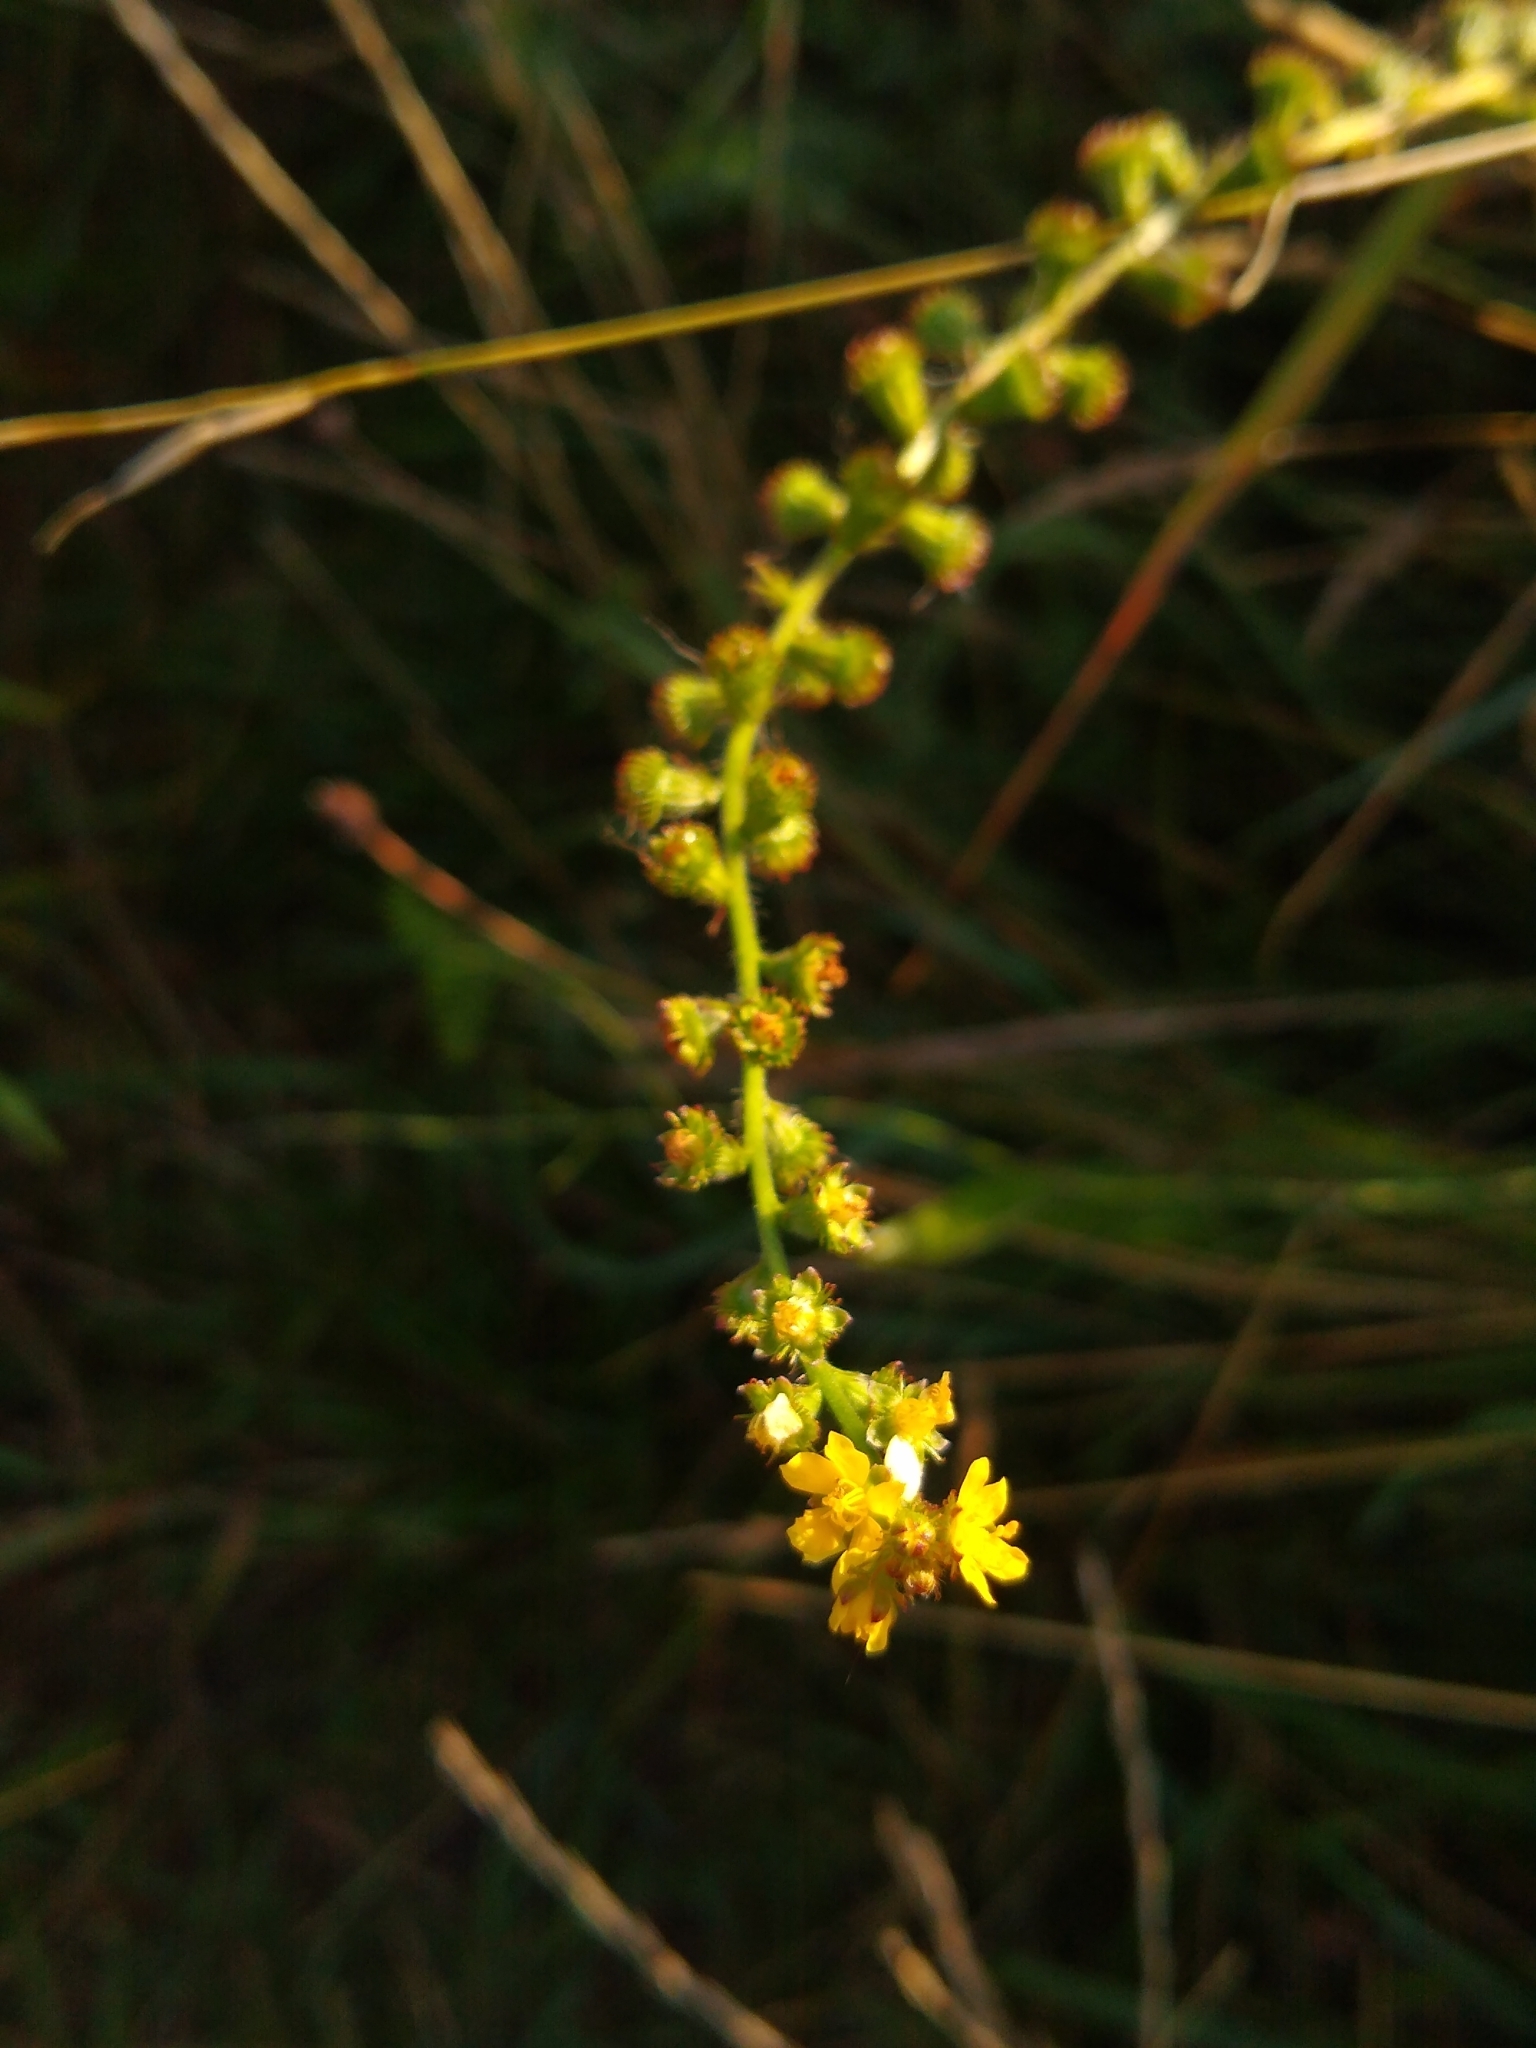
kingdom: Plantae
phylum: Tracheophyta
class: Magnoliopsida
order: Rosales
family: Rosaceae
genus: Agrimonia
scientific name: Agrimonia eupatoria
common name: Agrimony
